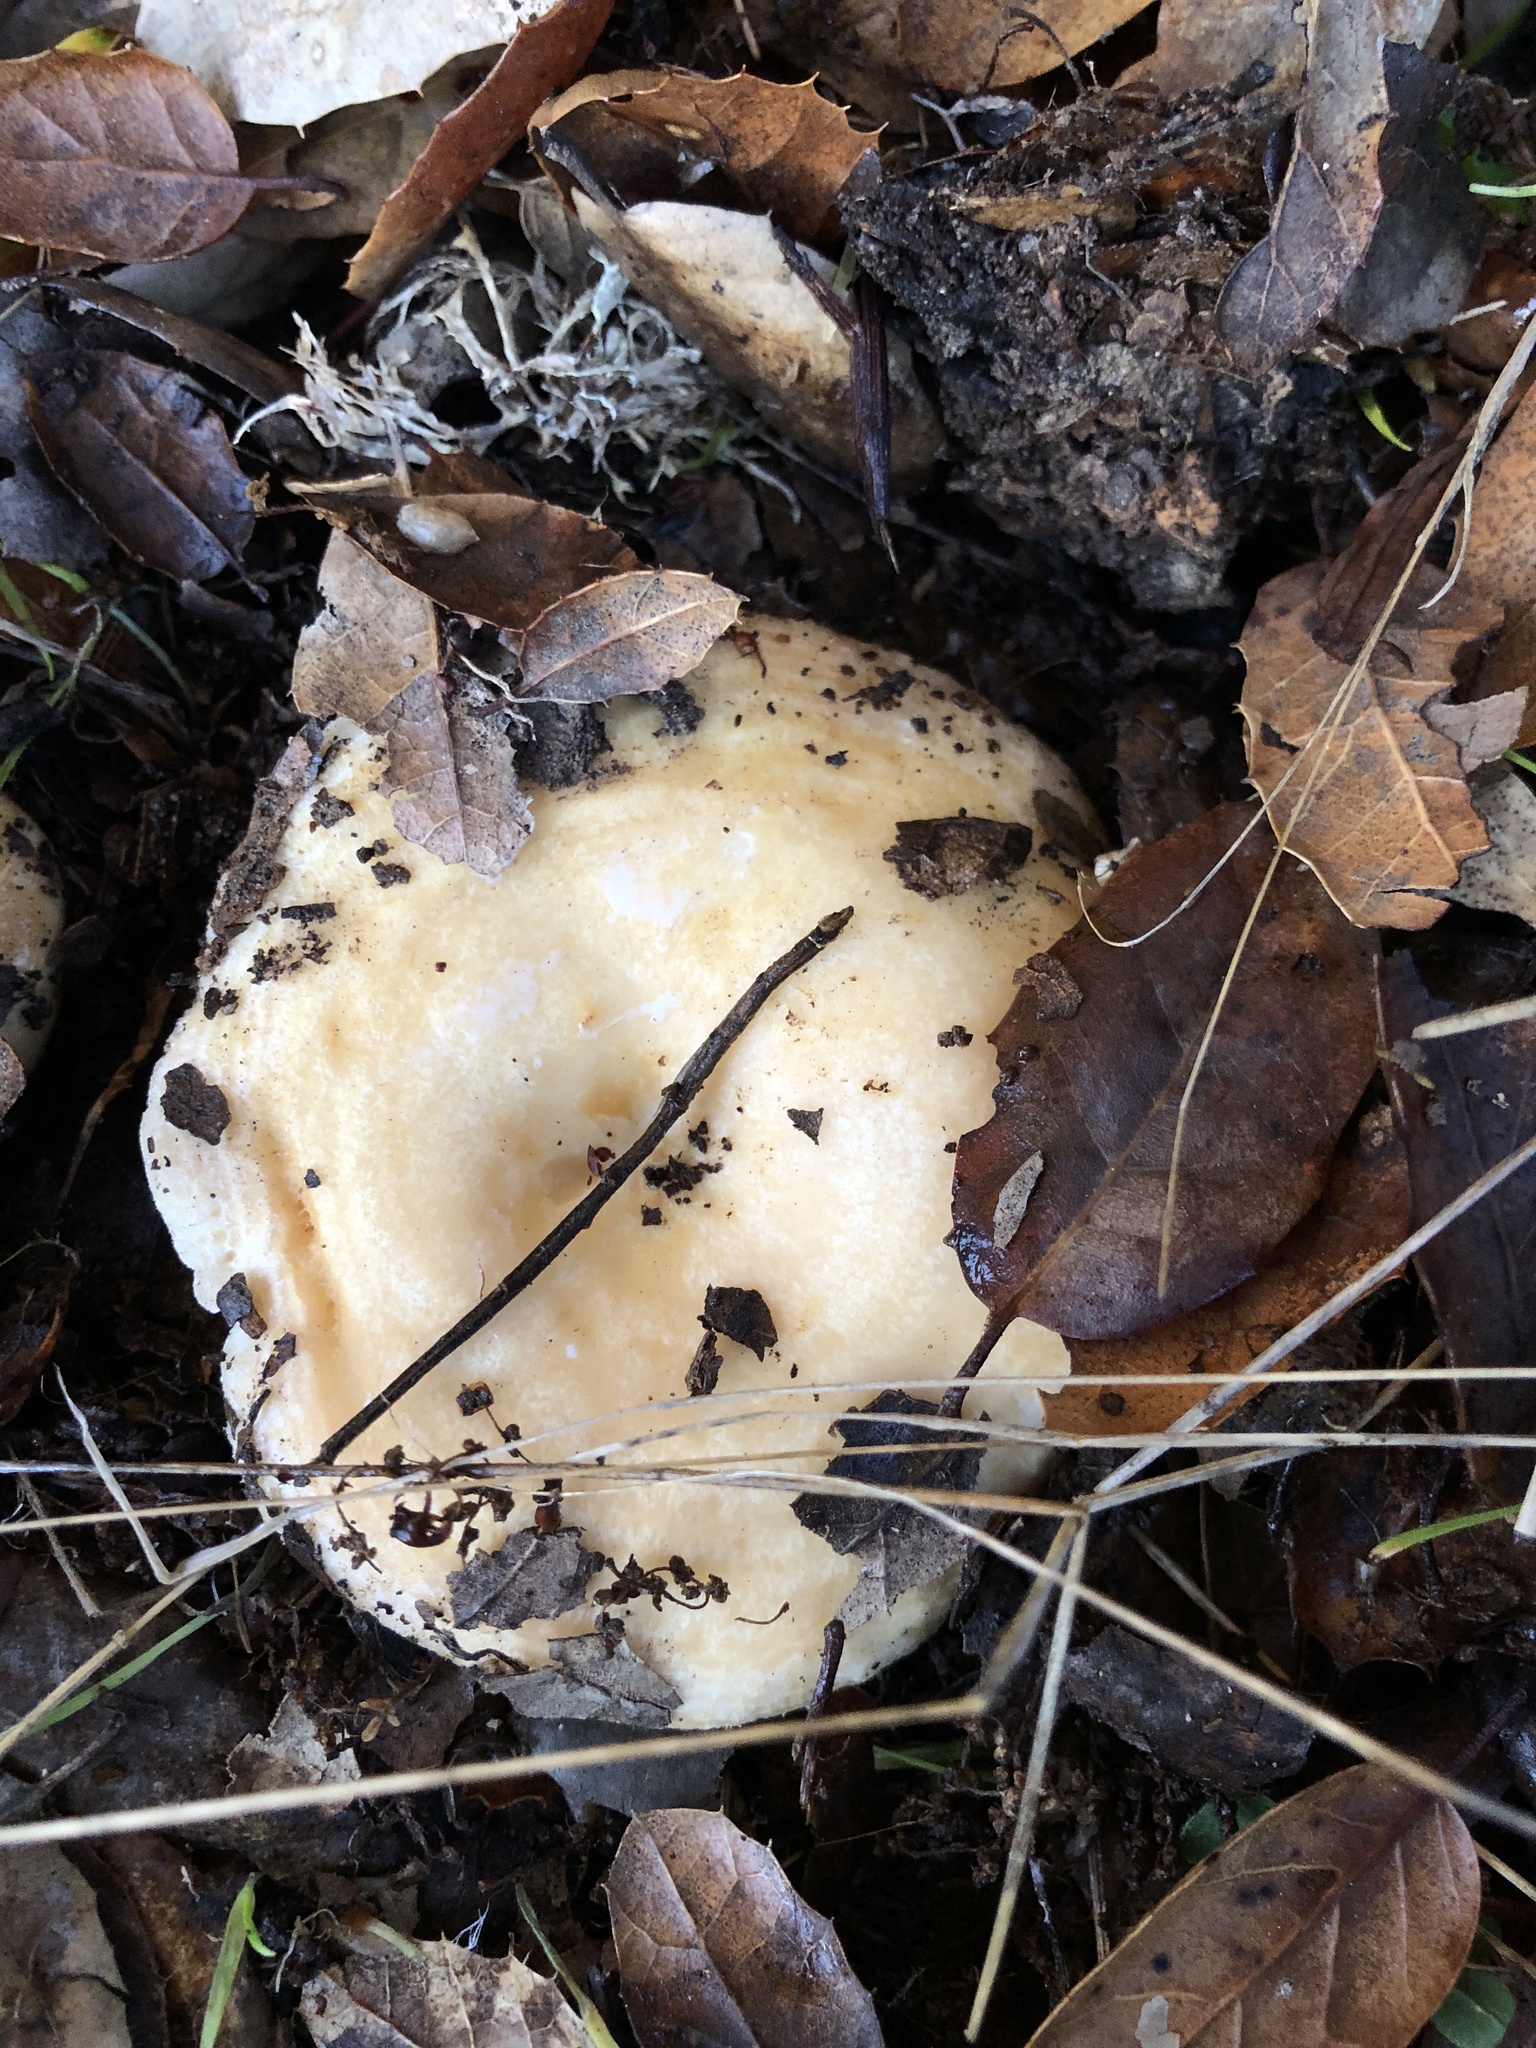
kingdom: Fungi
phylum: Basidiomycota
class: Agaricomycetes
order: Russulales
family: Russulaceae
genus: Lactarius
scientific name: Lactarius alnicola
